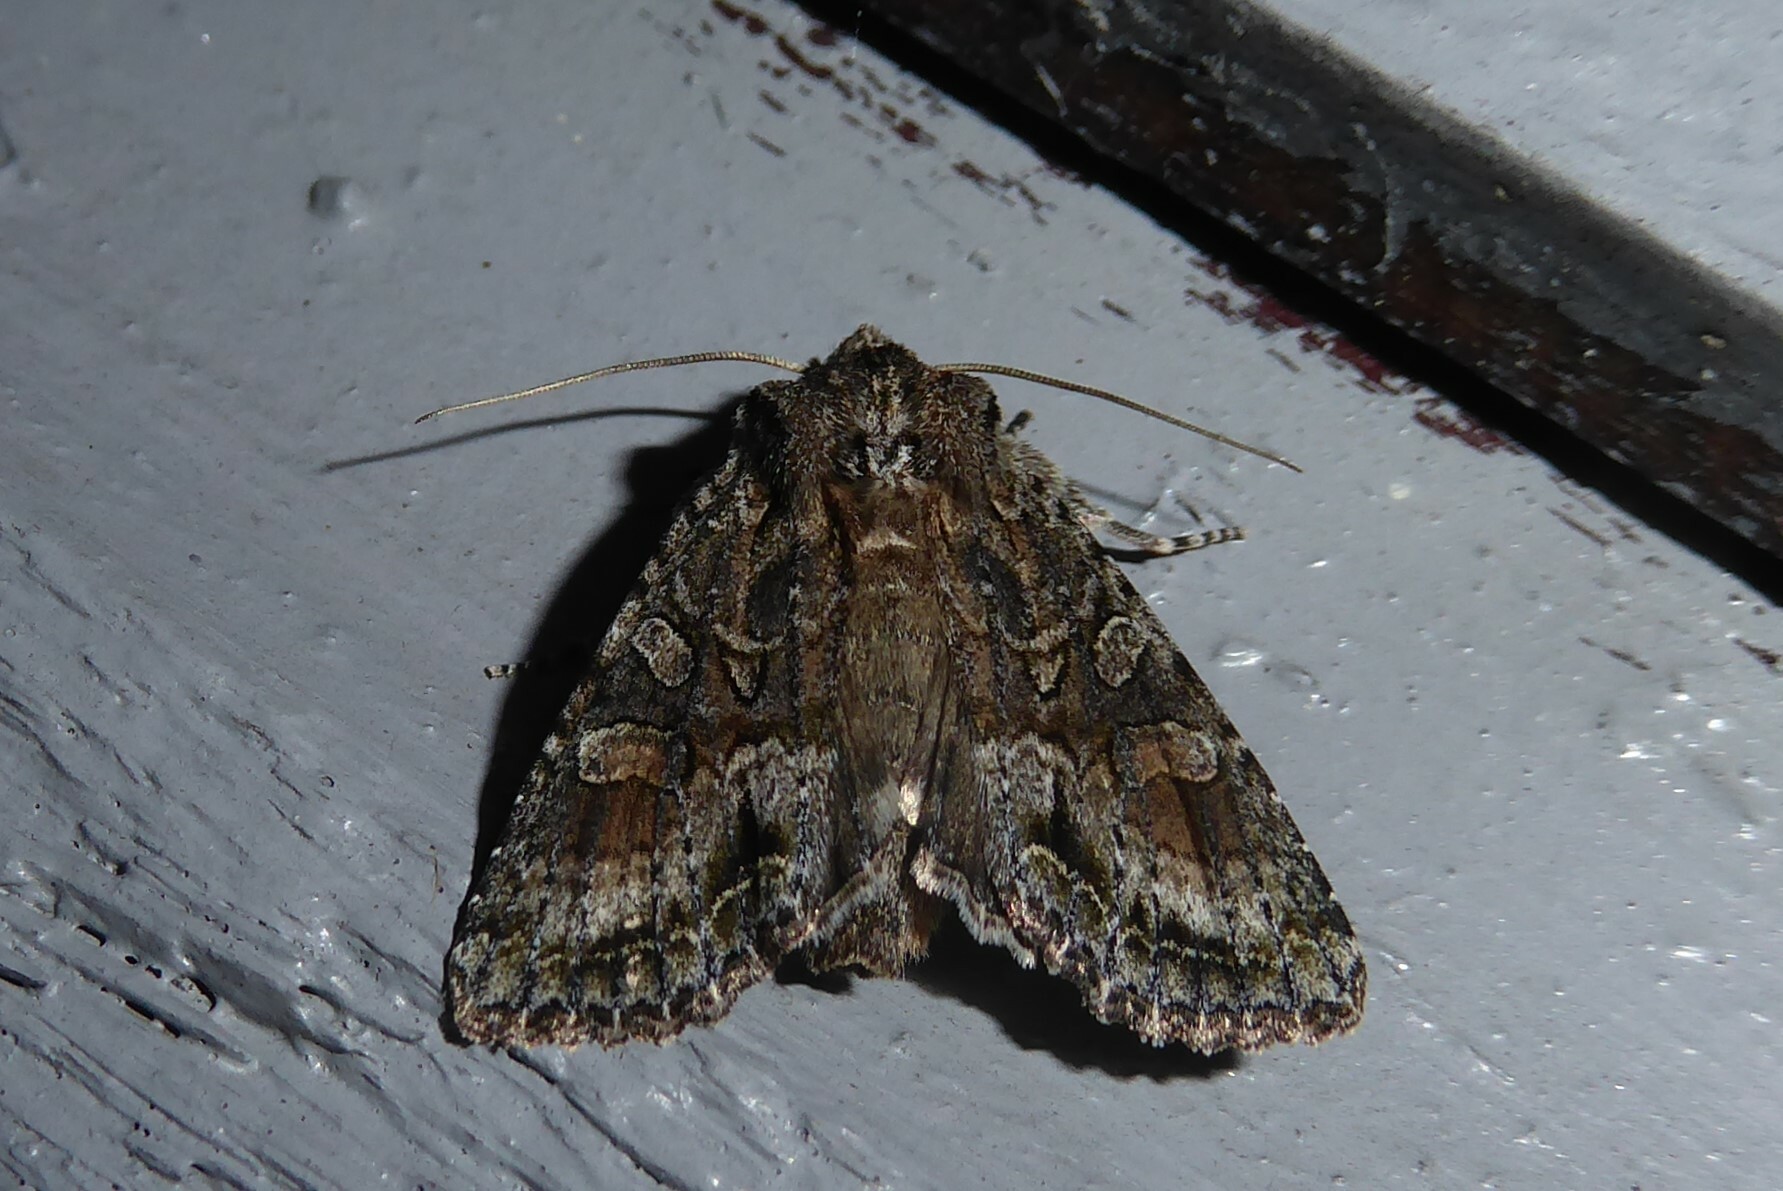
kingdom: Animalia
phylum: Arthropoda
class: Insecta
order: Lepidoptera
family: Noctuidae
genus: Ichneutica
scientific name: Ichneutica mutans
